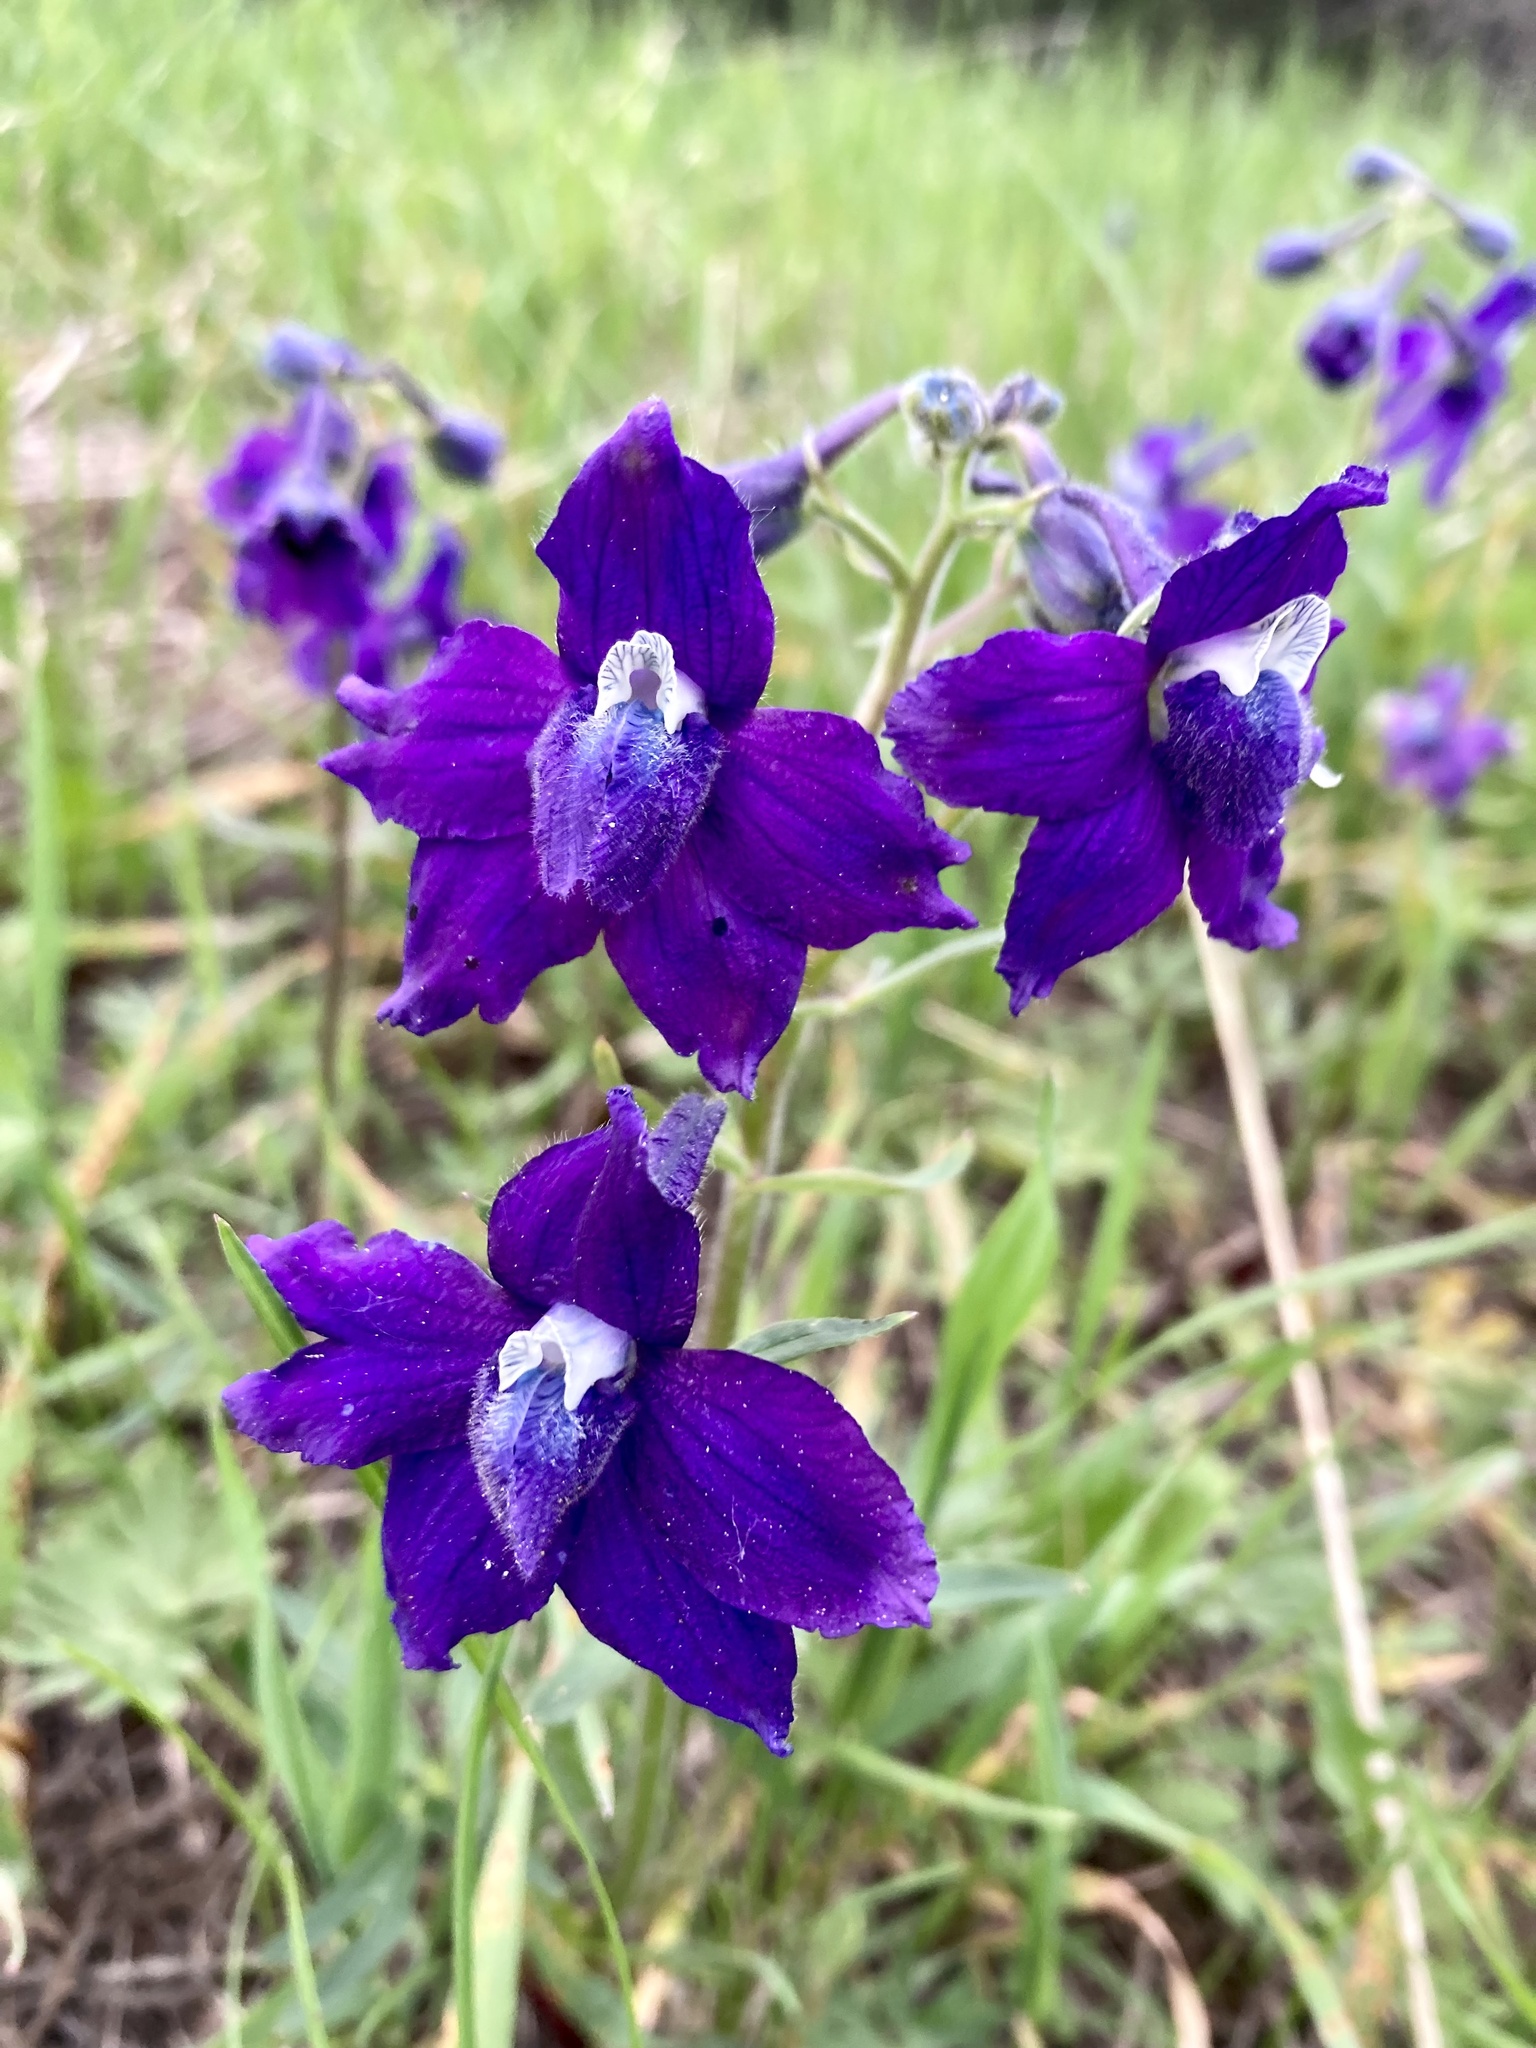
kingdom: Plantae
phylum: Tracheophyta
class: Magnoliopsida
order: Ranunculales
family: Ranunculaceae
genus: Delphinium
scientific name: Delphinium bicolor
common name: Low larkspur
